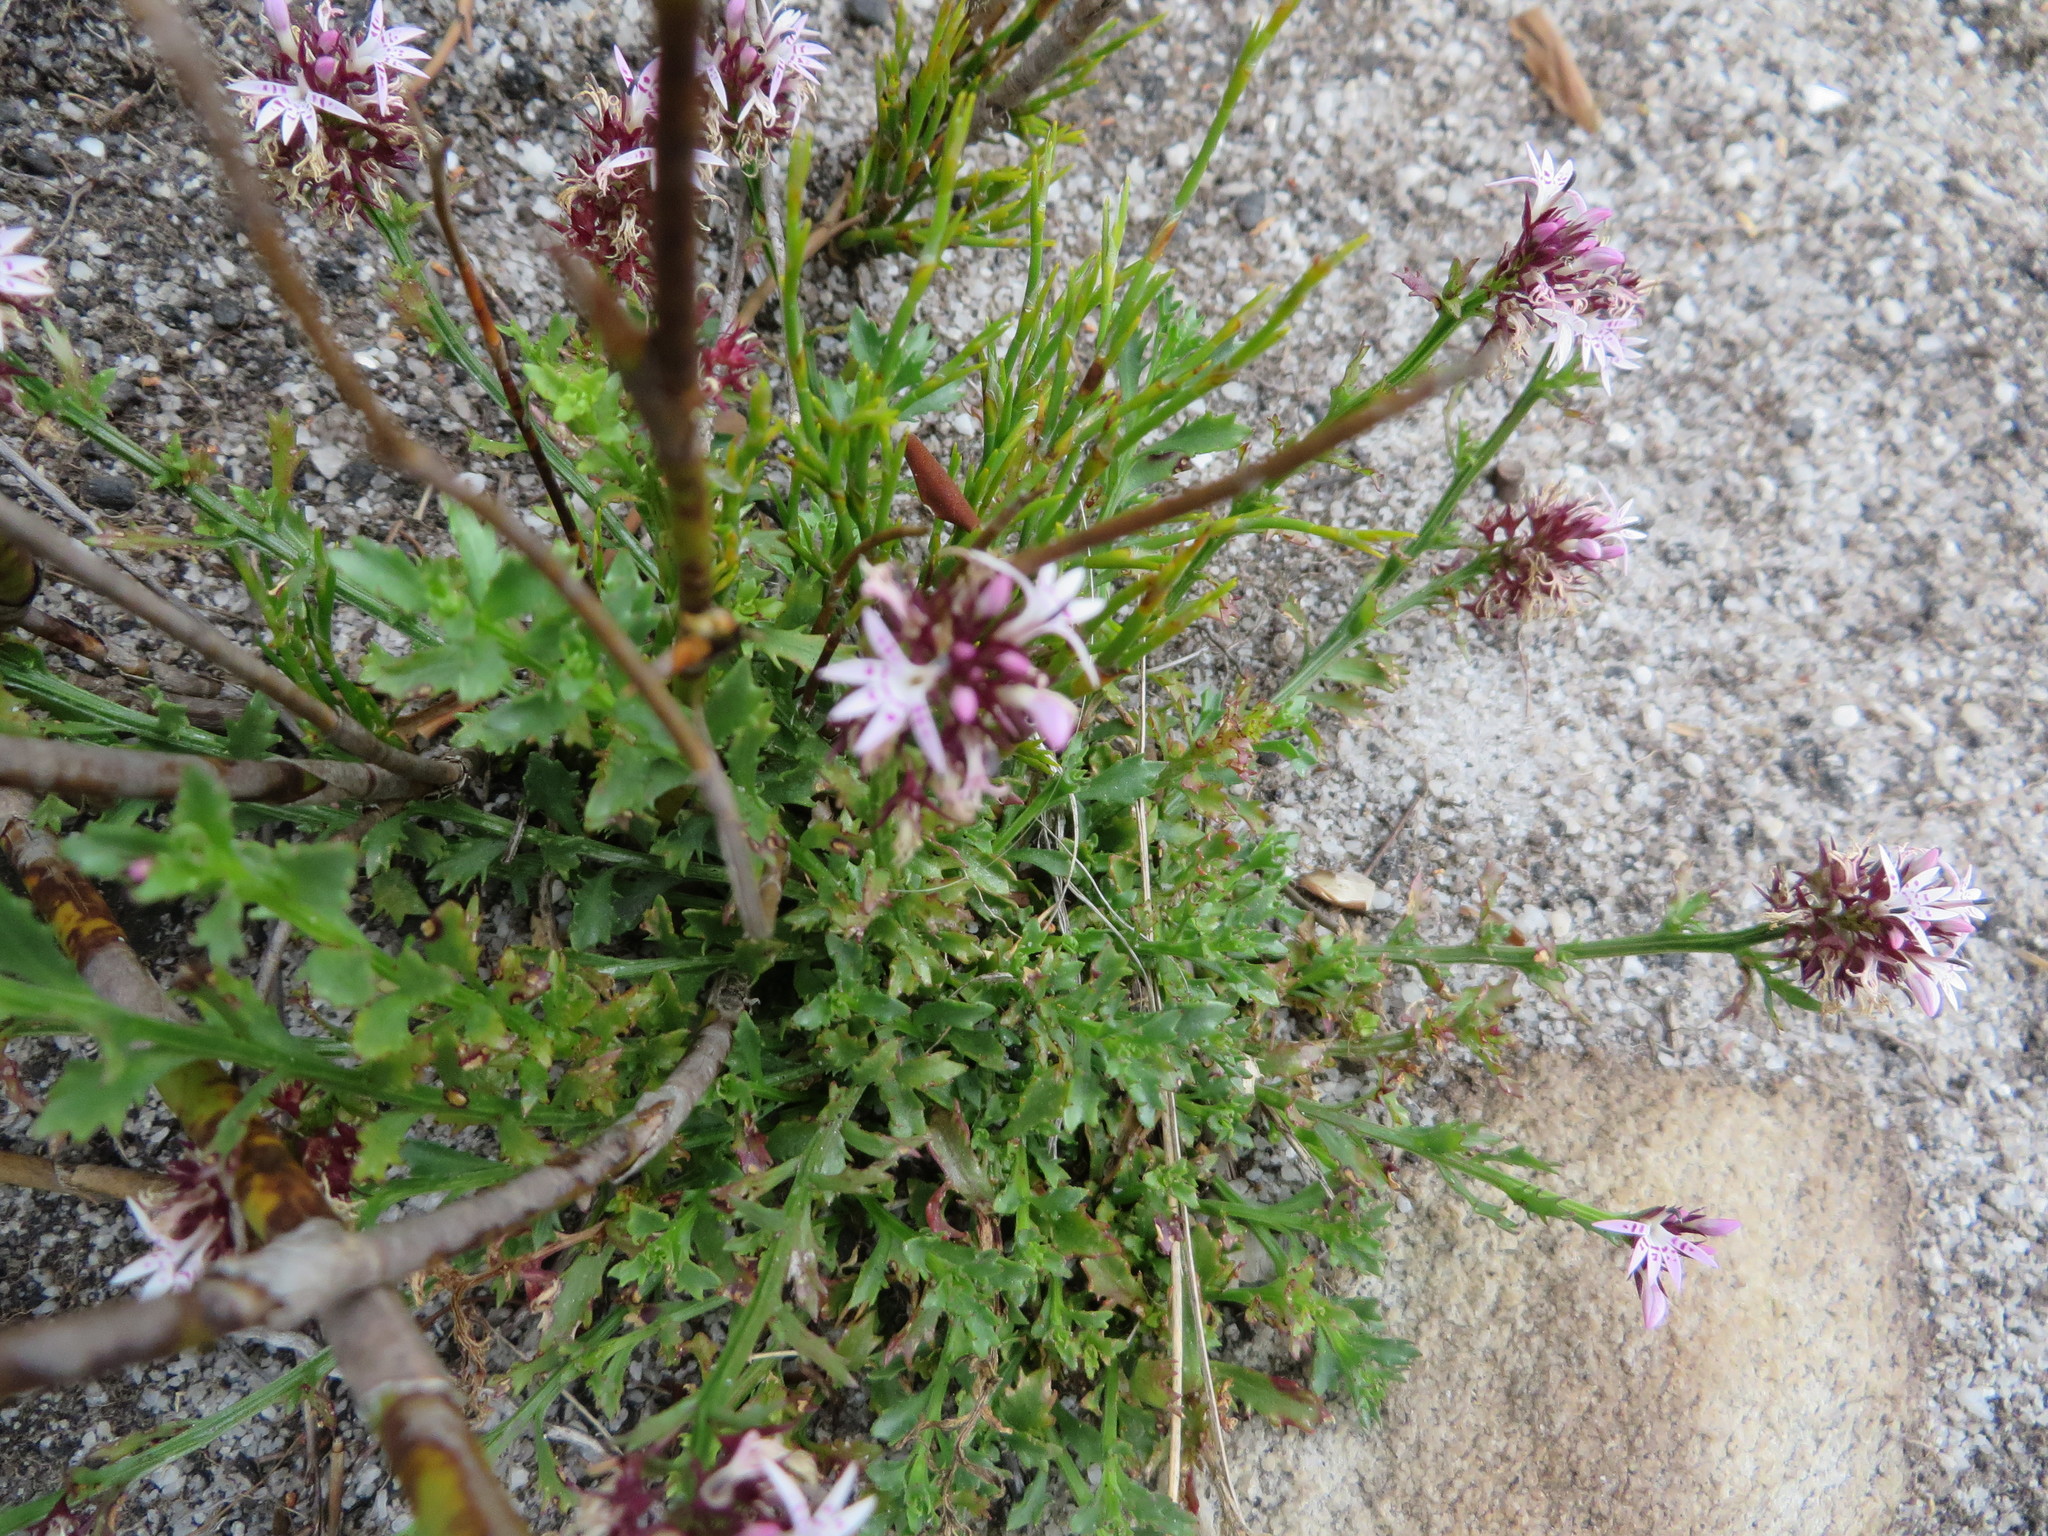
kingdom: Plantae
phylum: Tracheophyta
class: Magnoliopsida
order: Asterales
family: Campanulaceae
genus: Lobelia
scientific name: Lobelia jasionoides
